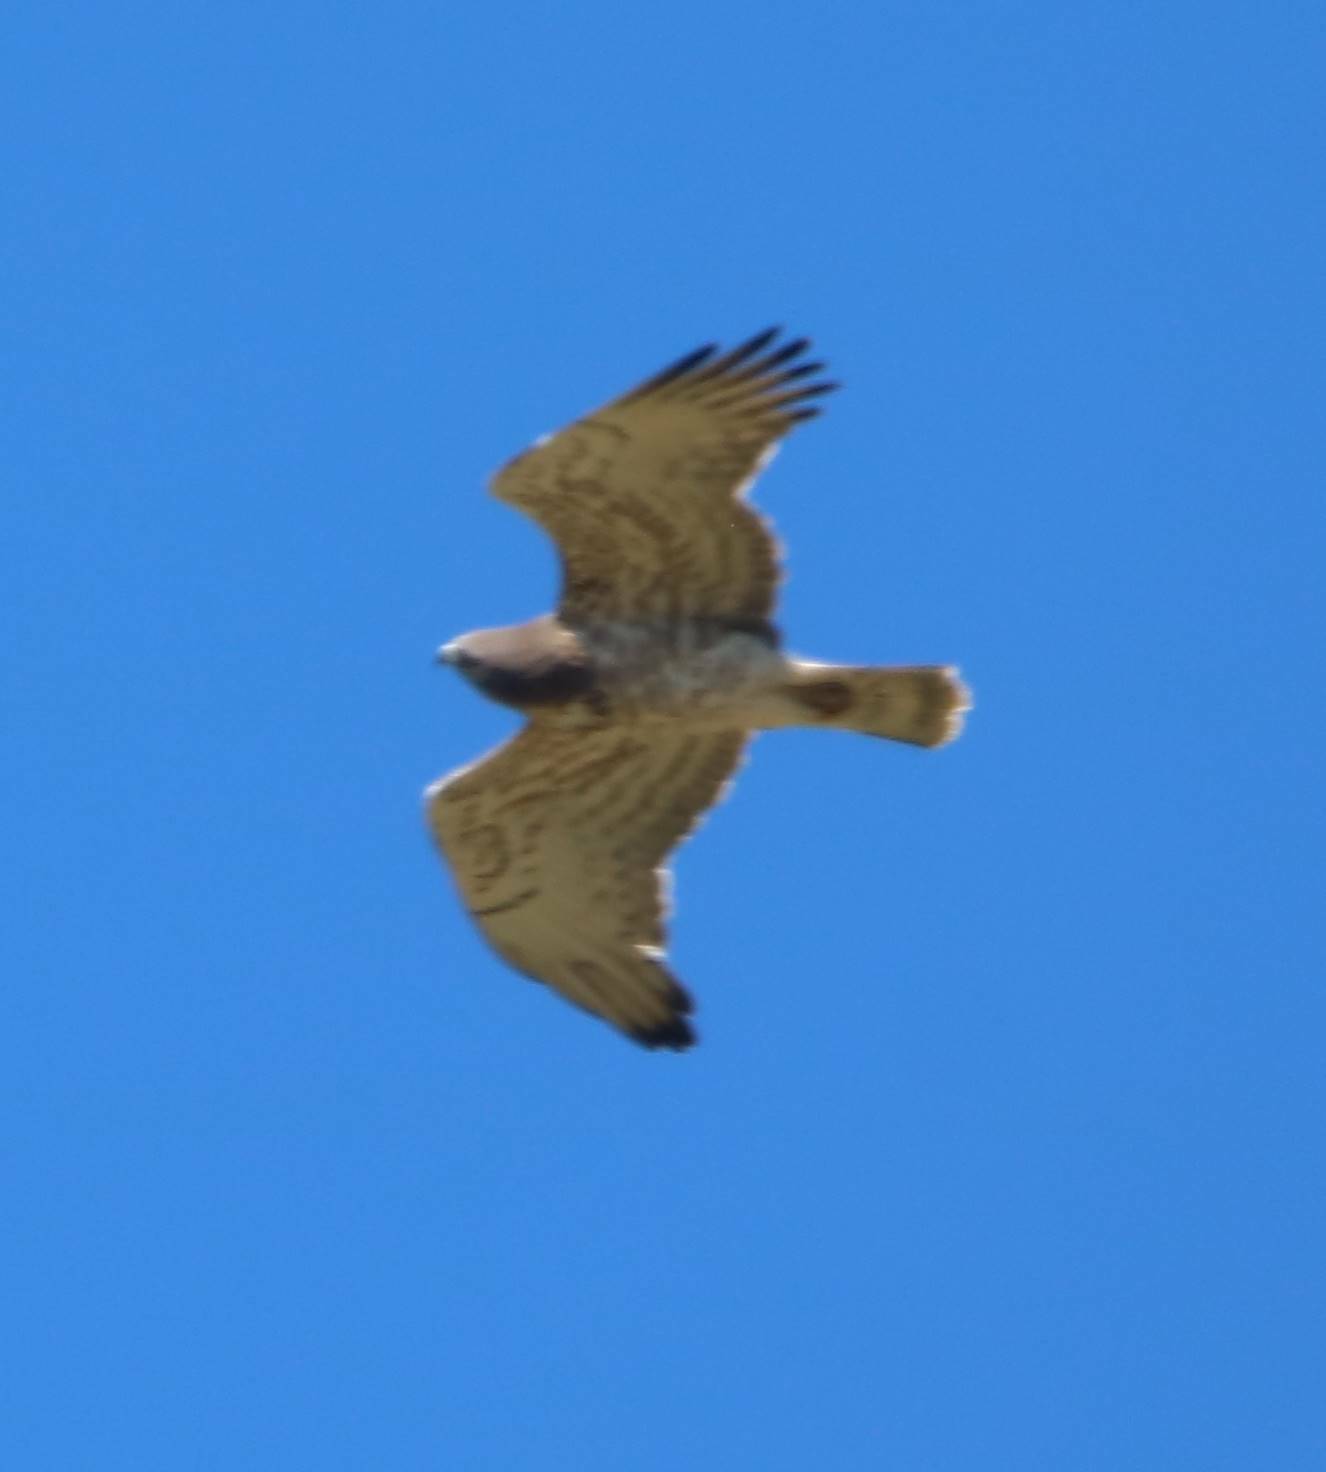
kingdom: Animalia
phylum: Chordata
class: Aves
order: Accipitriformes
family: Accipitridae
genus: Circaetus
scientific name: Circaetus gallicus
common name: Short-toed snake eagle
